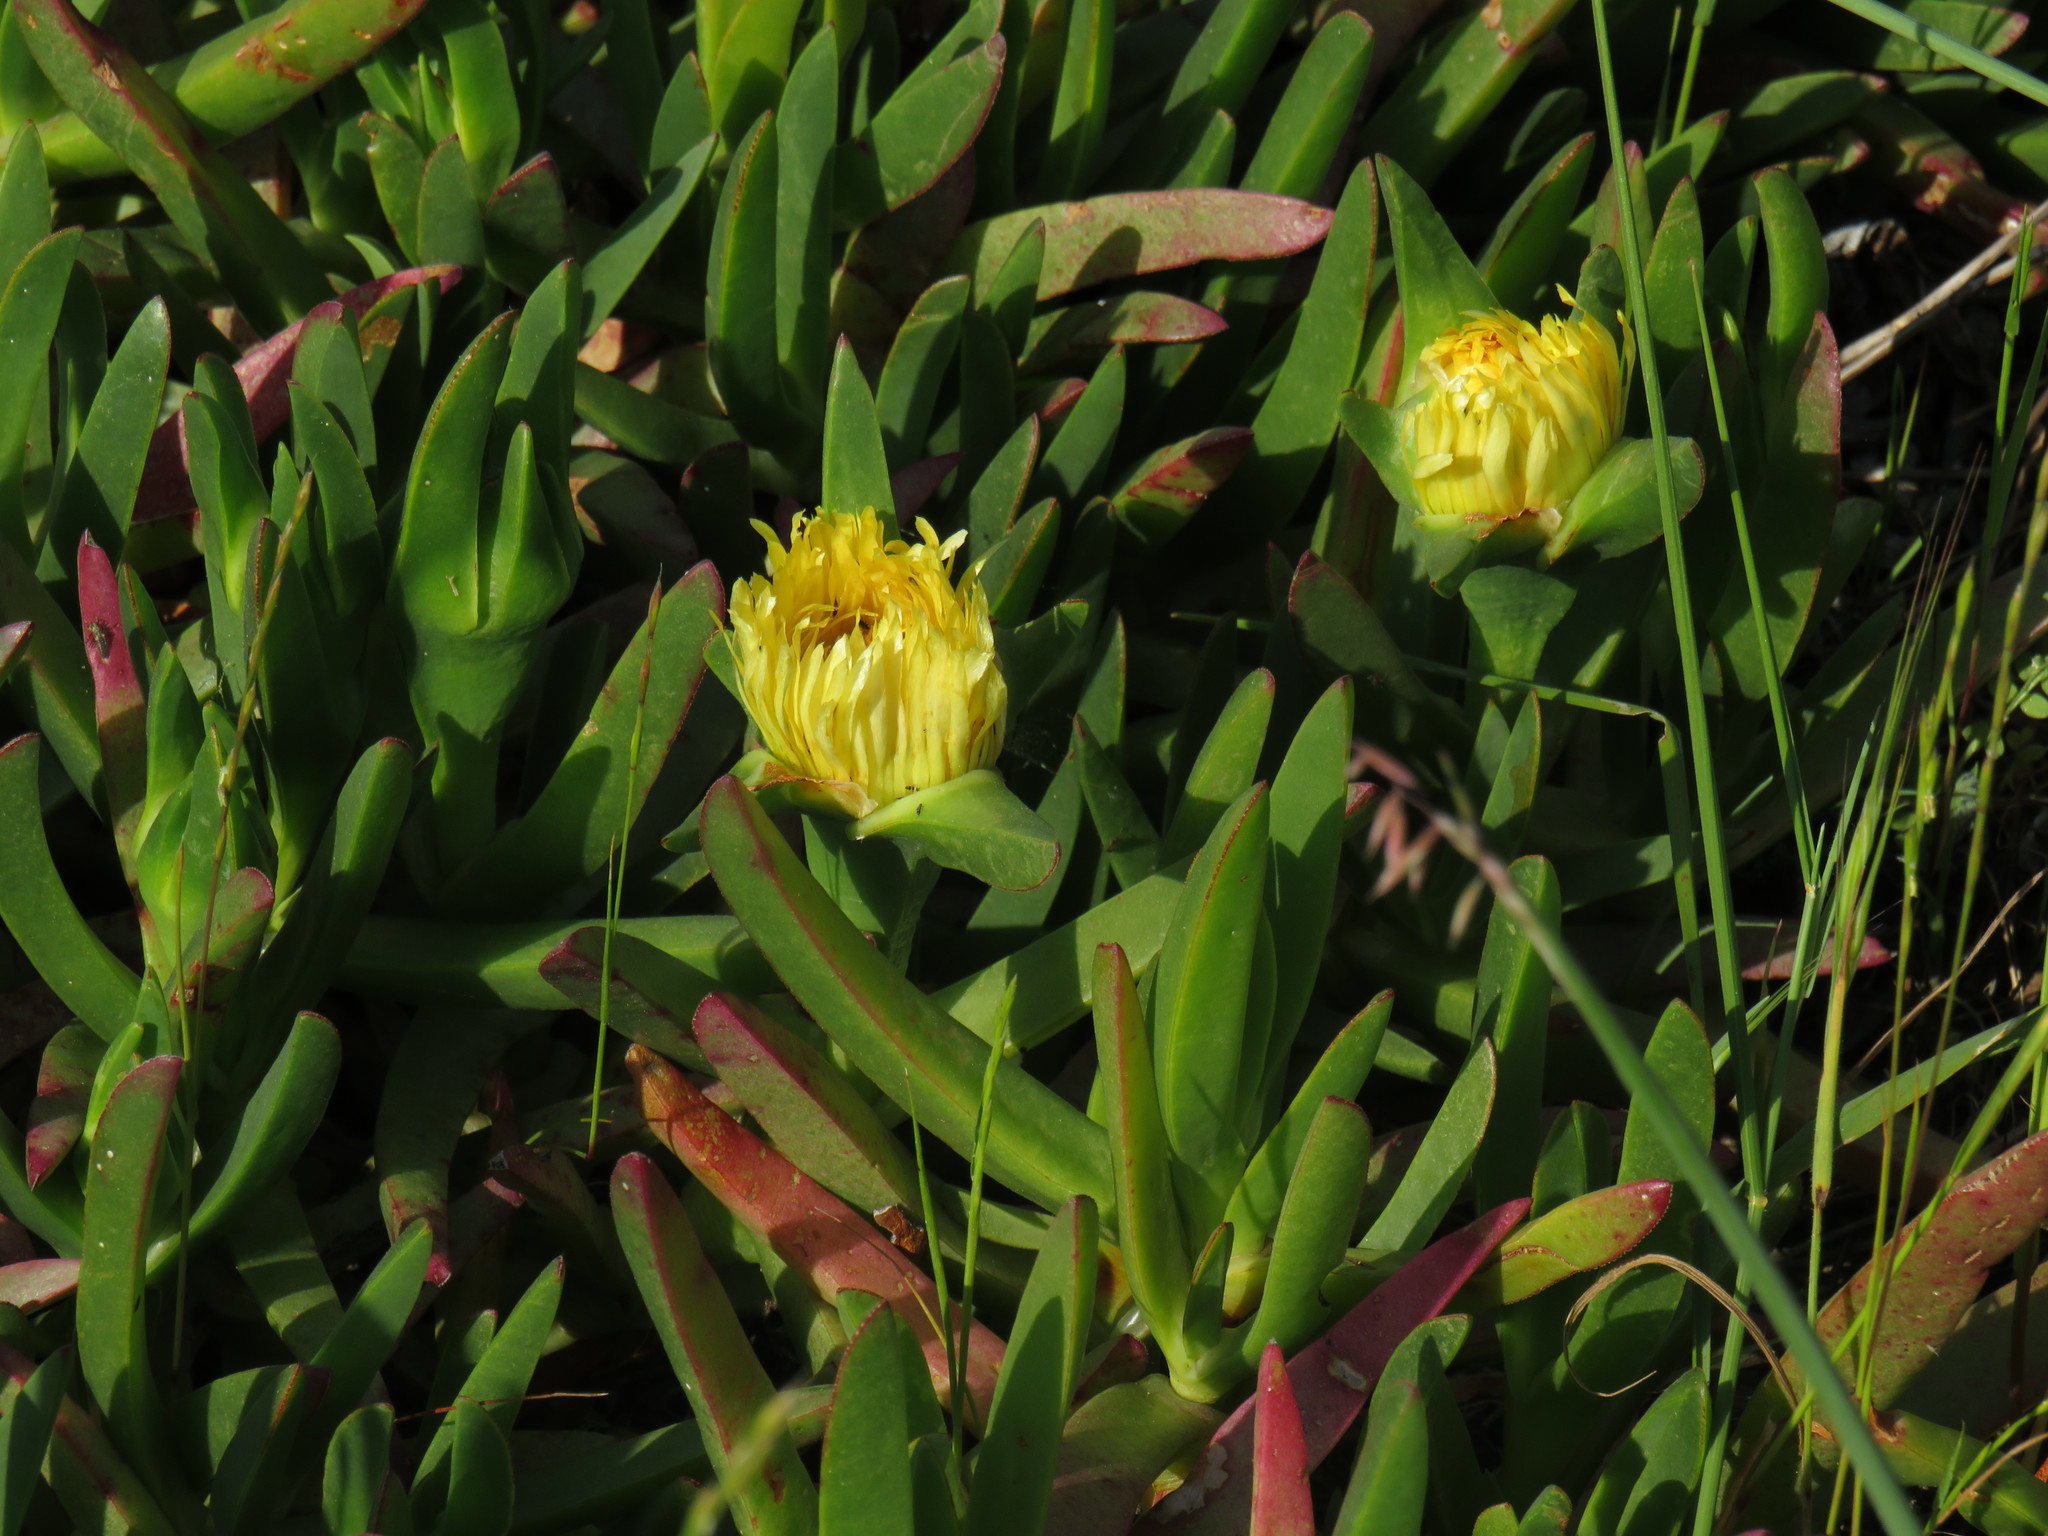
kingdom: Plantae
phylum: Tracheophyta
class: Magnoliopsida
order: Caryophyllales
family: Aizoaceae
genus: Carpobrotus
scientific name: Carpobrotus edulis
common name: Hottentot-fig
